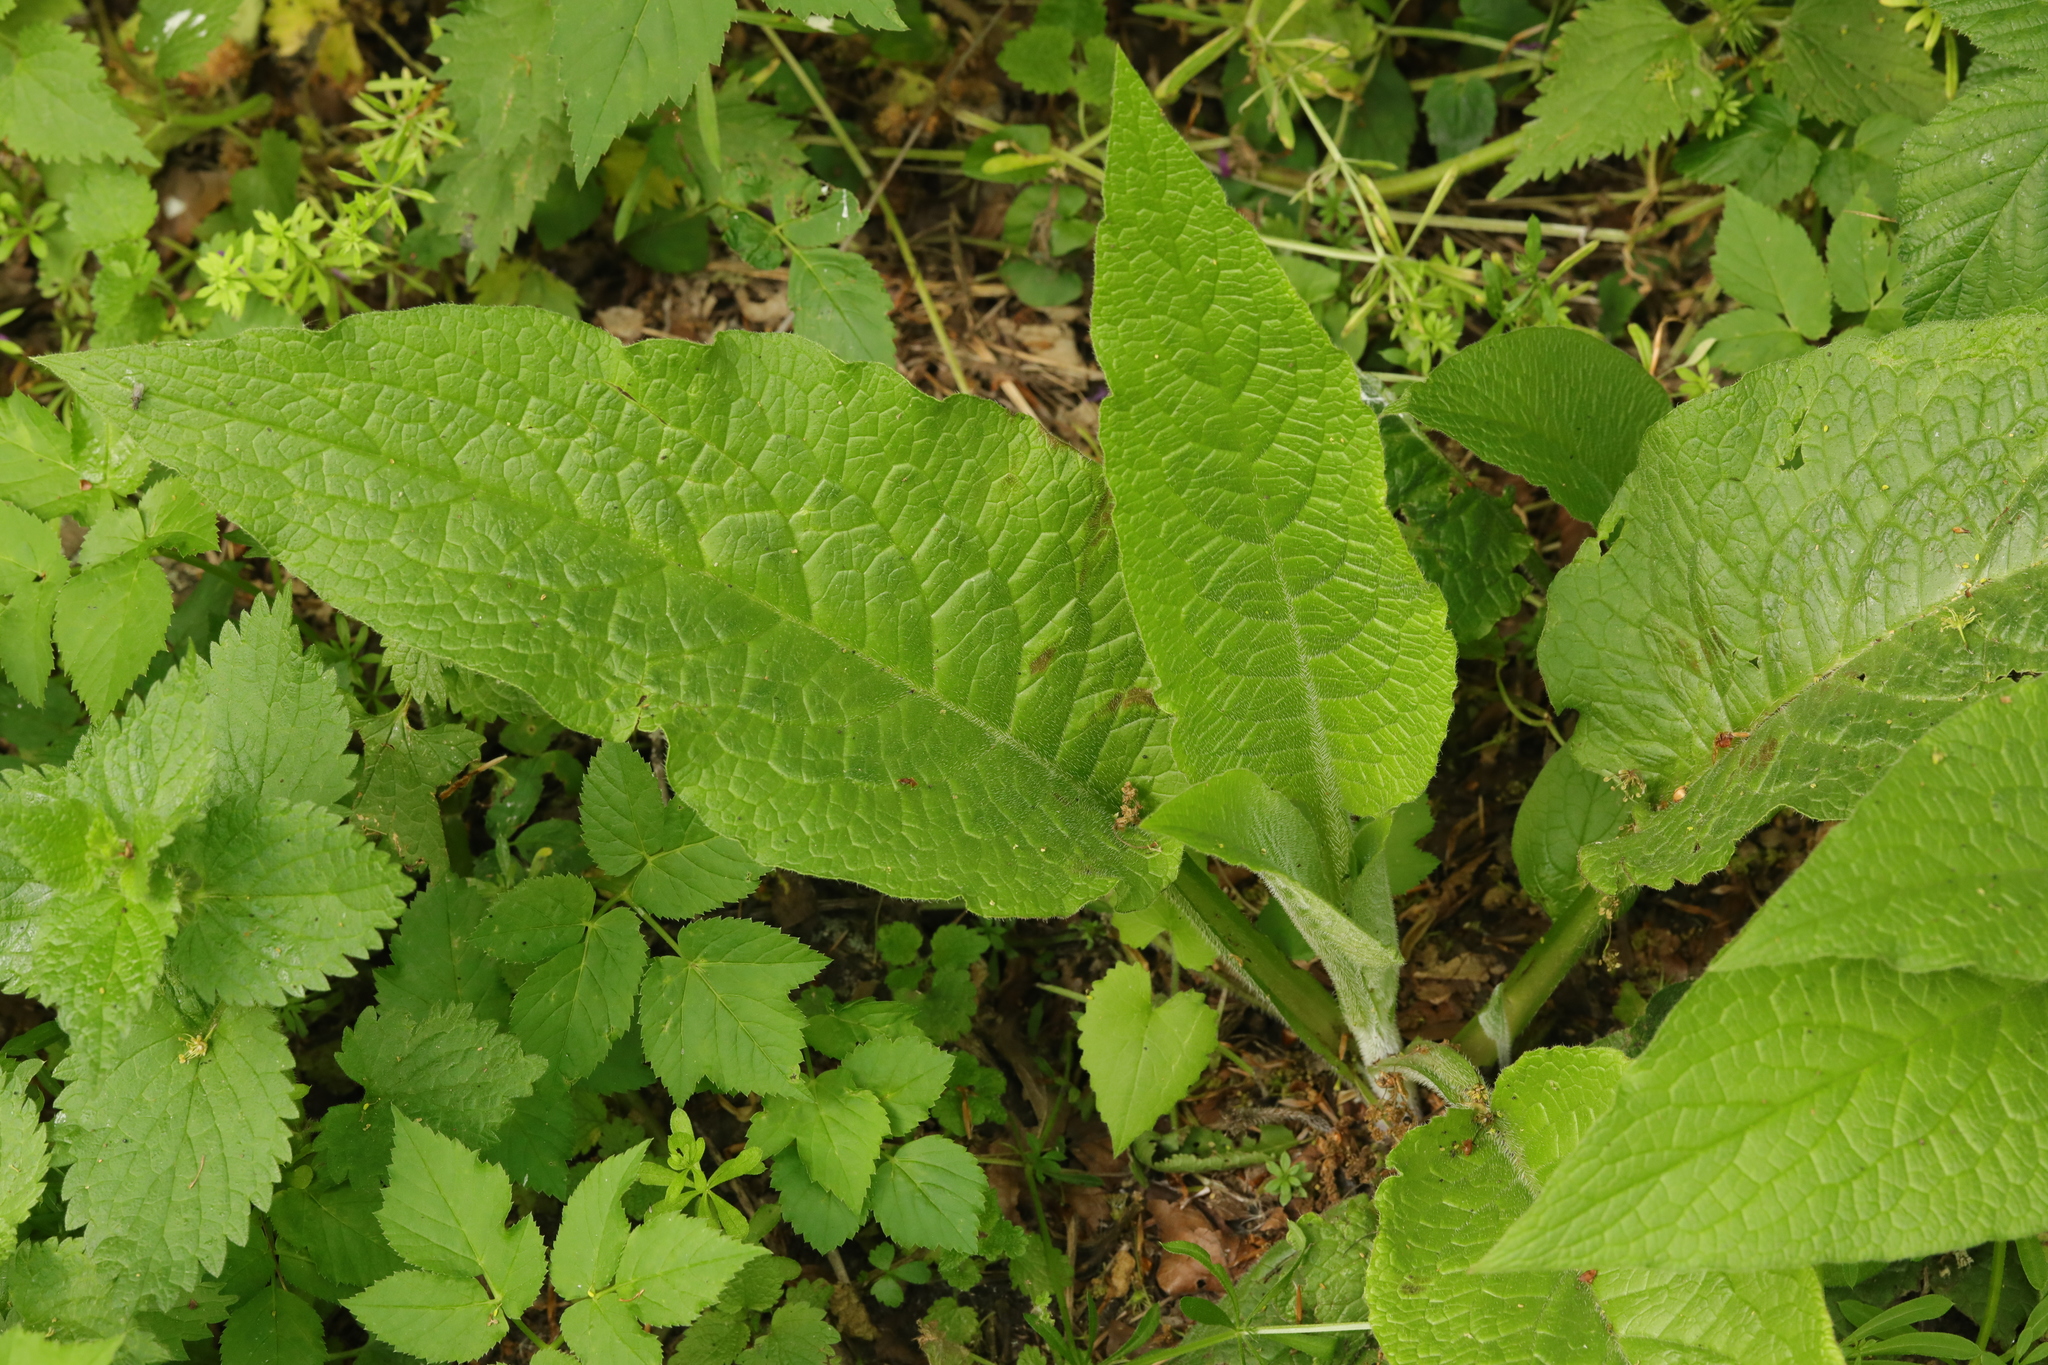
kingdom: Plantae
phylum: Tracheophyta
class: Magnoliopsida
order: Boraginales
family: Boraginaceae
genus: Symphytum
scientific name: Symphytum uplandicum
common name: Russian comfrey
